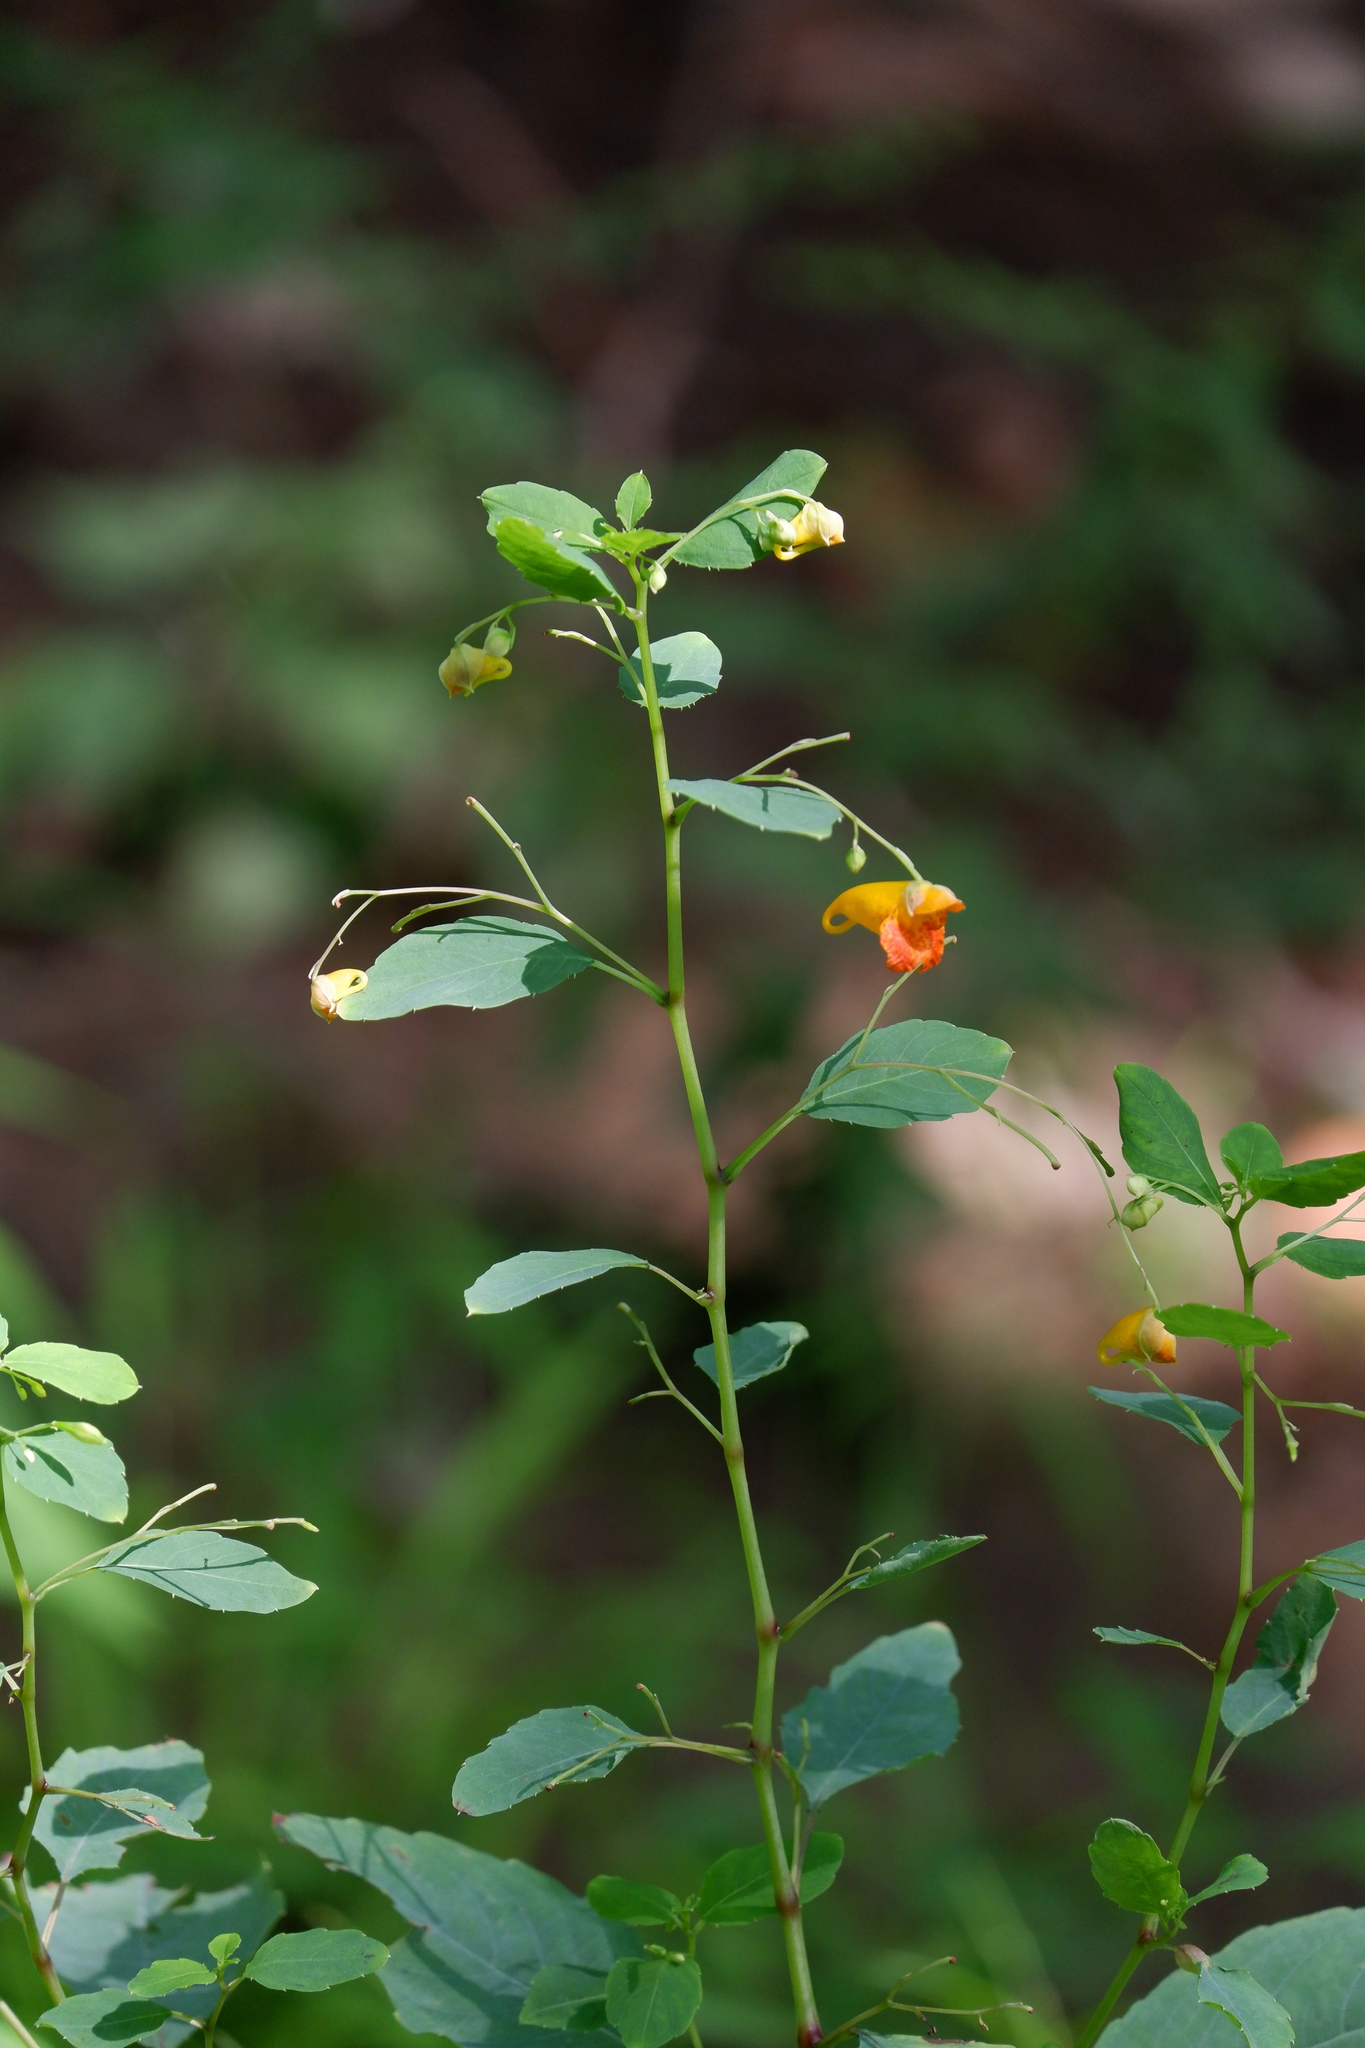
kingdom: Plantae
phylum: Tracheophyta
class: Magnoliopsida
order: Ericales
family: Balsaminaceae
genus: Impatiens
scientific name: Impatiens capensis
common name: Orange balsam
